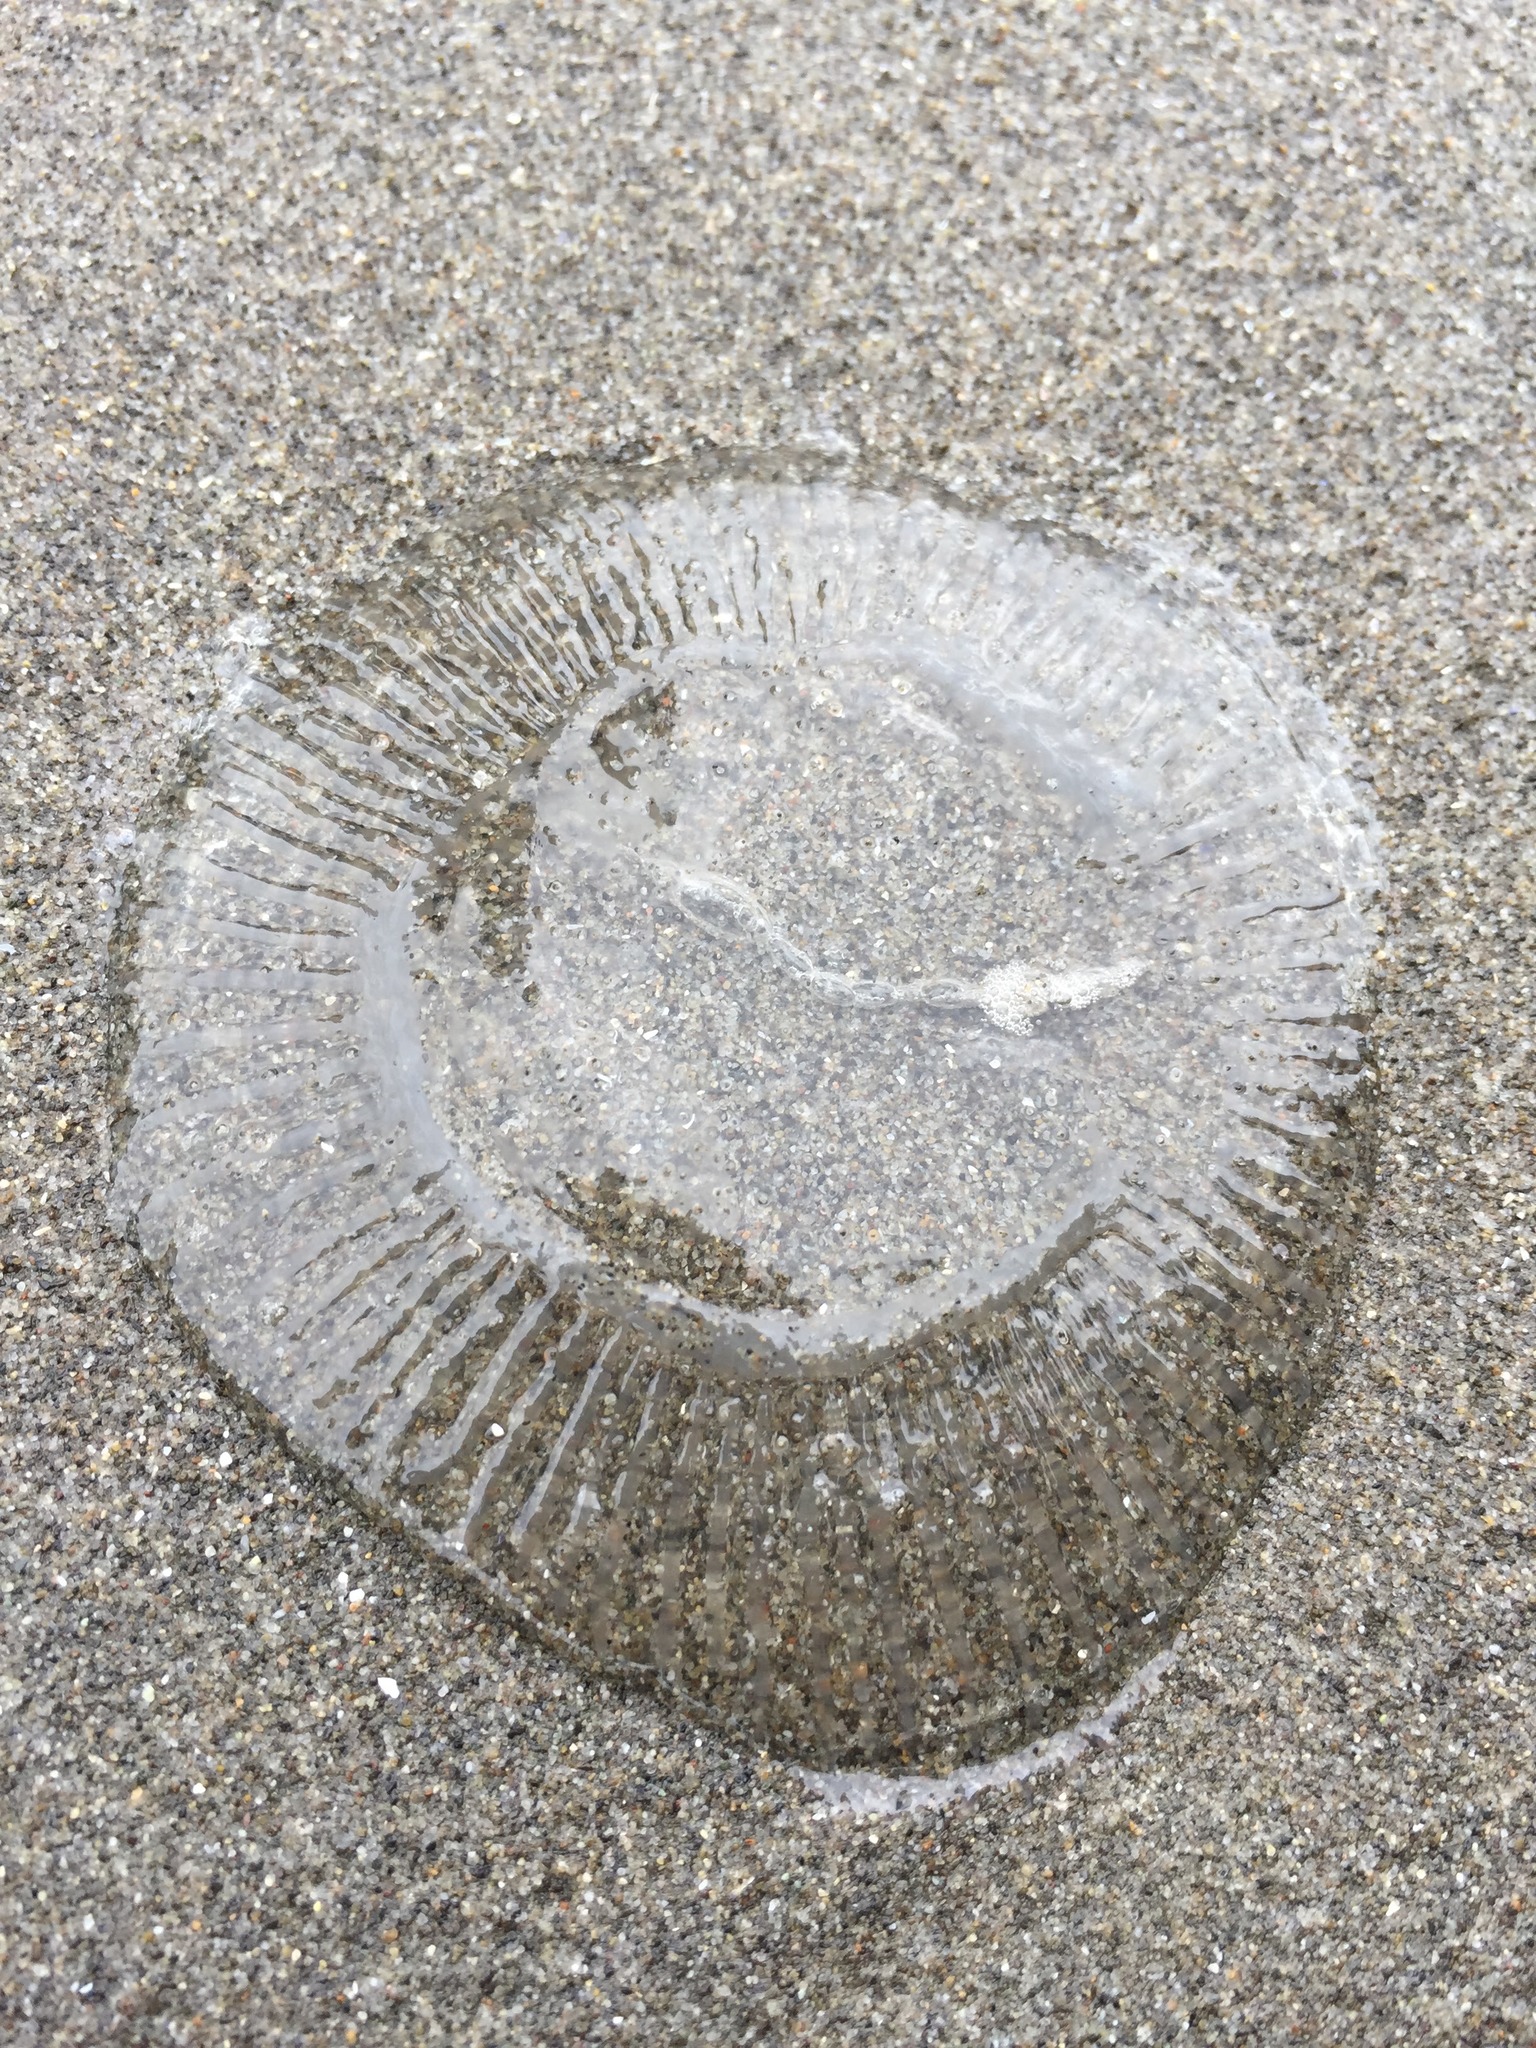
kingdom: Animalia
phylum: Cnidaria
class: Hydrozoa
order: Leptothecata
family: Aequoreidae
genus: Aequorea
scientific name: Aequorea victoria
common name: Water jellyfish
